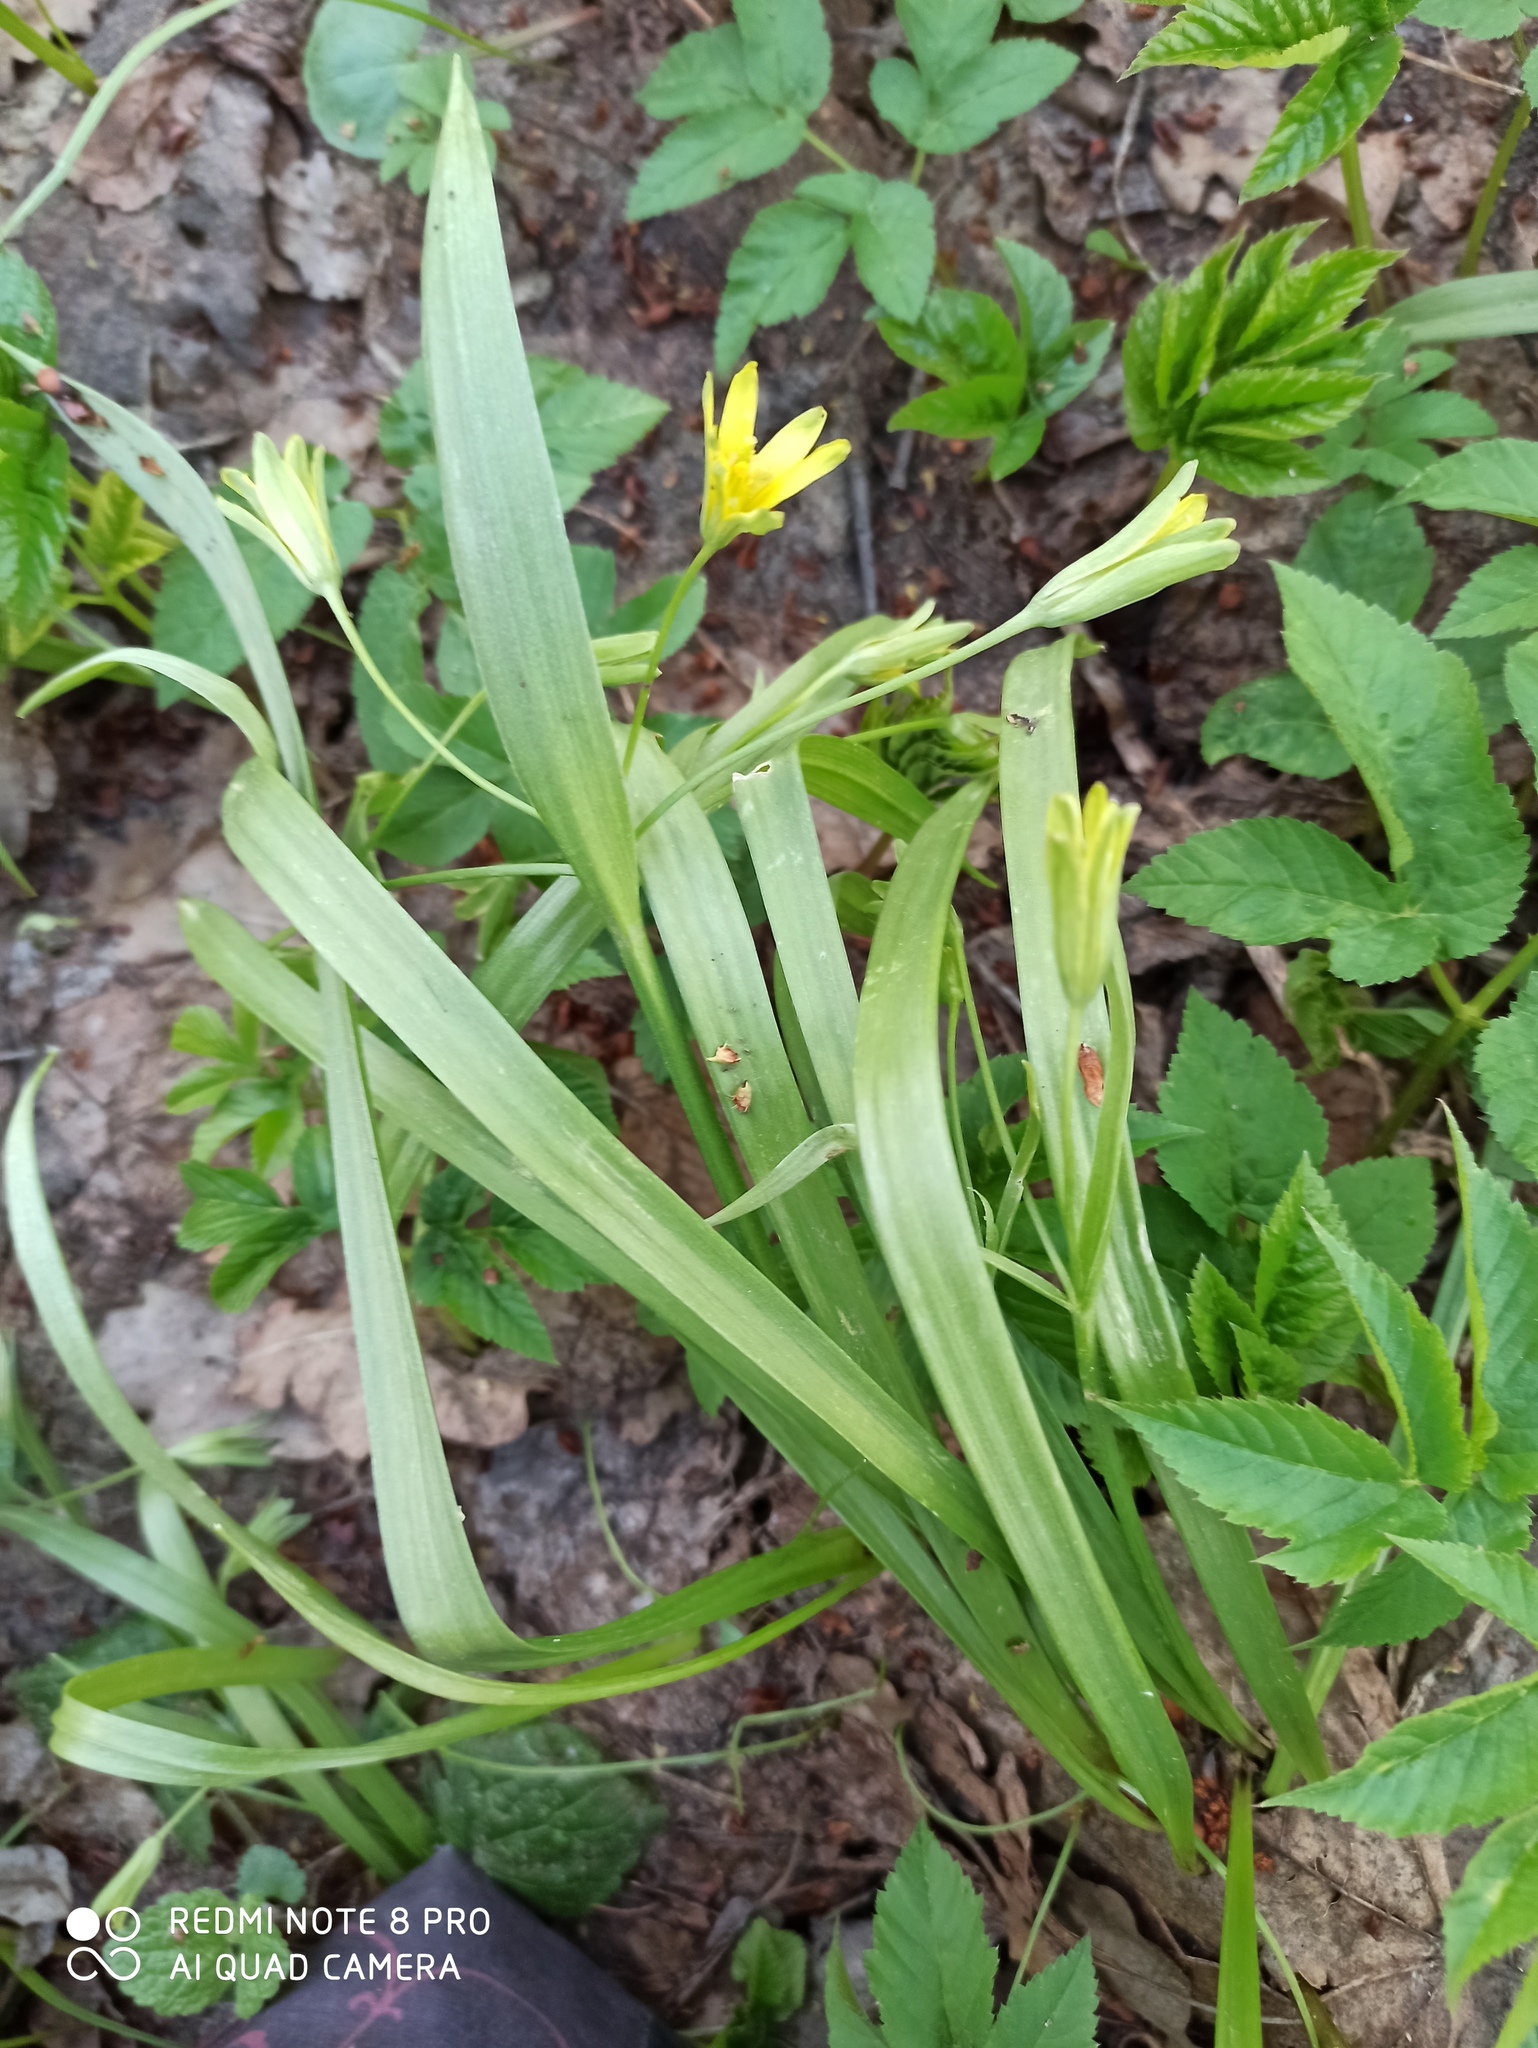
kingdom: Plantae
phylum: Tracheophyta
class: Liliopsida
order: Liliales
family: Liliaceae
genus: Gagea
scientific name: Gagea lutea
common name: Yellow star-of-bethlehem
